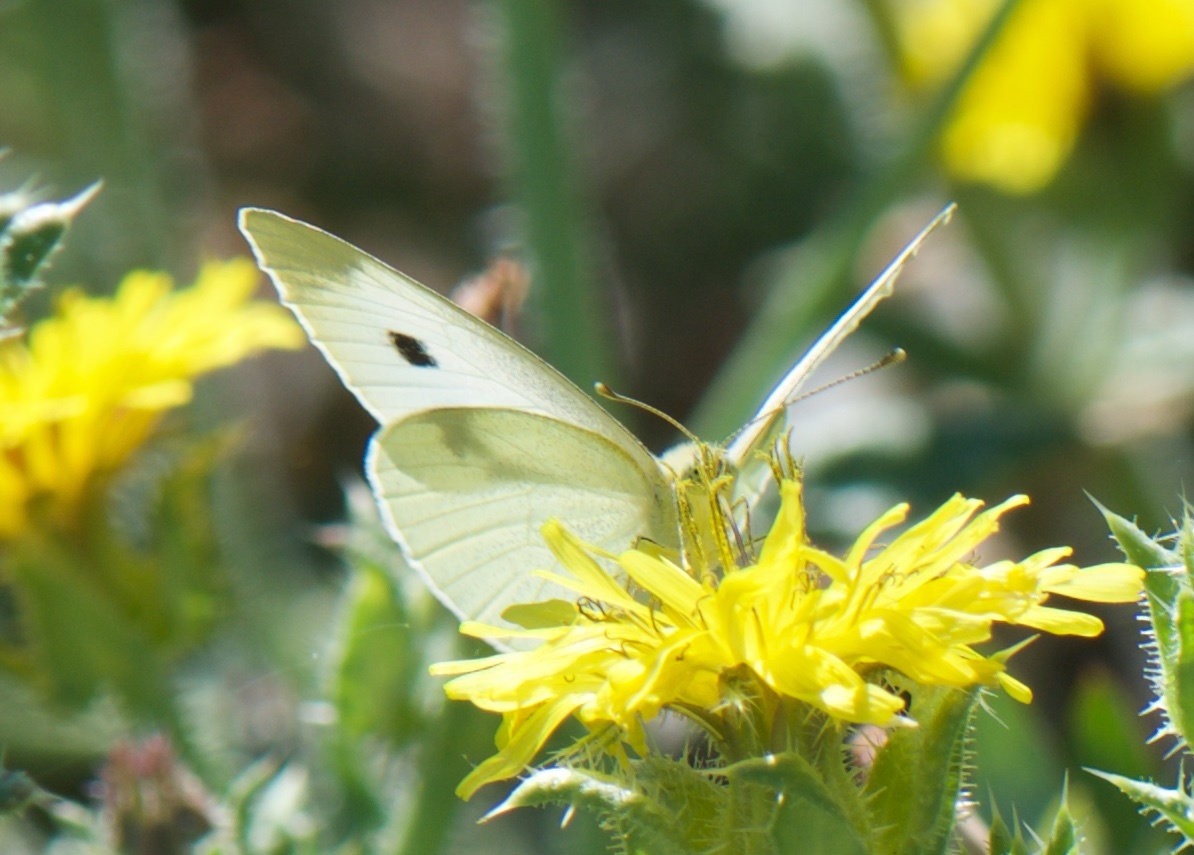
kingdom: Animalia
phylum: Arthropoda
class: Insecta
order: Lepidoptera
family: Pieridae
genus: Pieris
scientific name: Pieris rapae
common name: Small white
